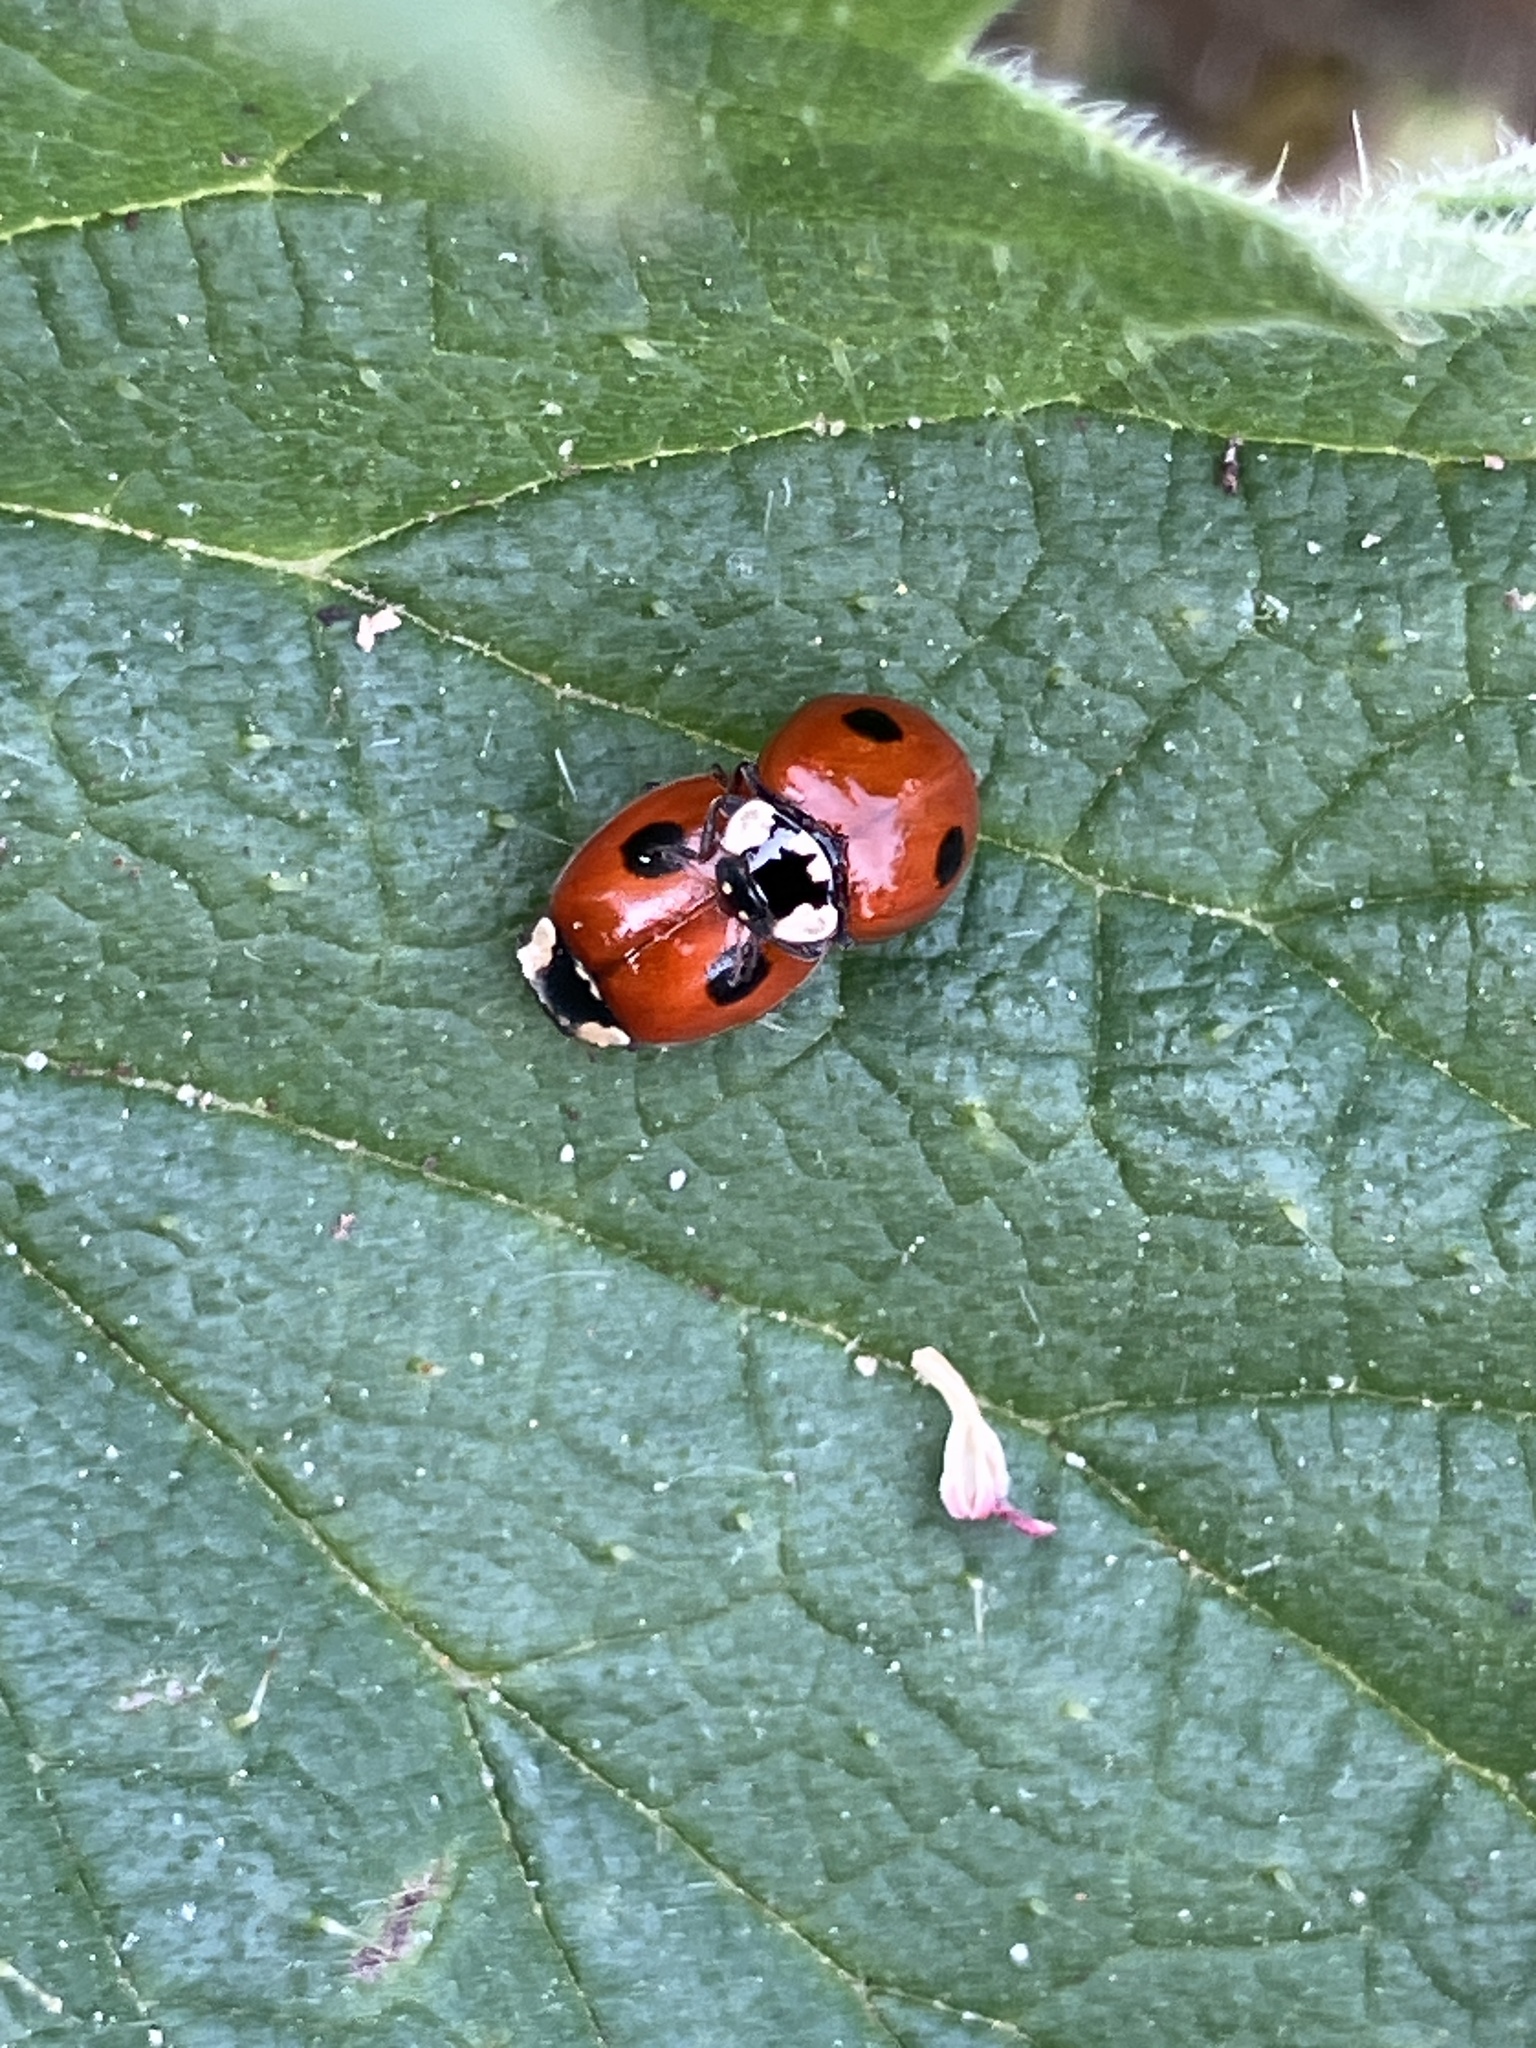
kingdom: Animalia
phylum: Arthropoda
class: Insecta
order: Coleoptera
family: Coccinellidae
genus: Adalia
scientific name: Adalia bipunctata
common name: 2-spot ladybird
